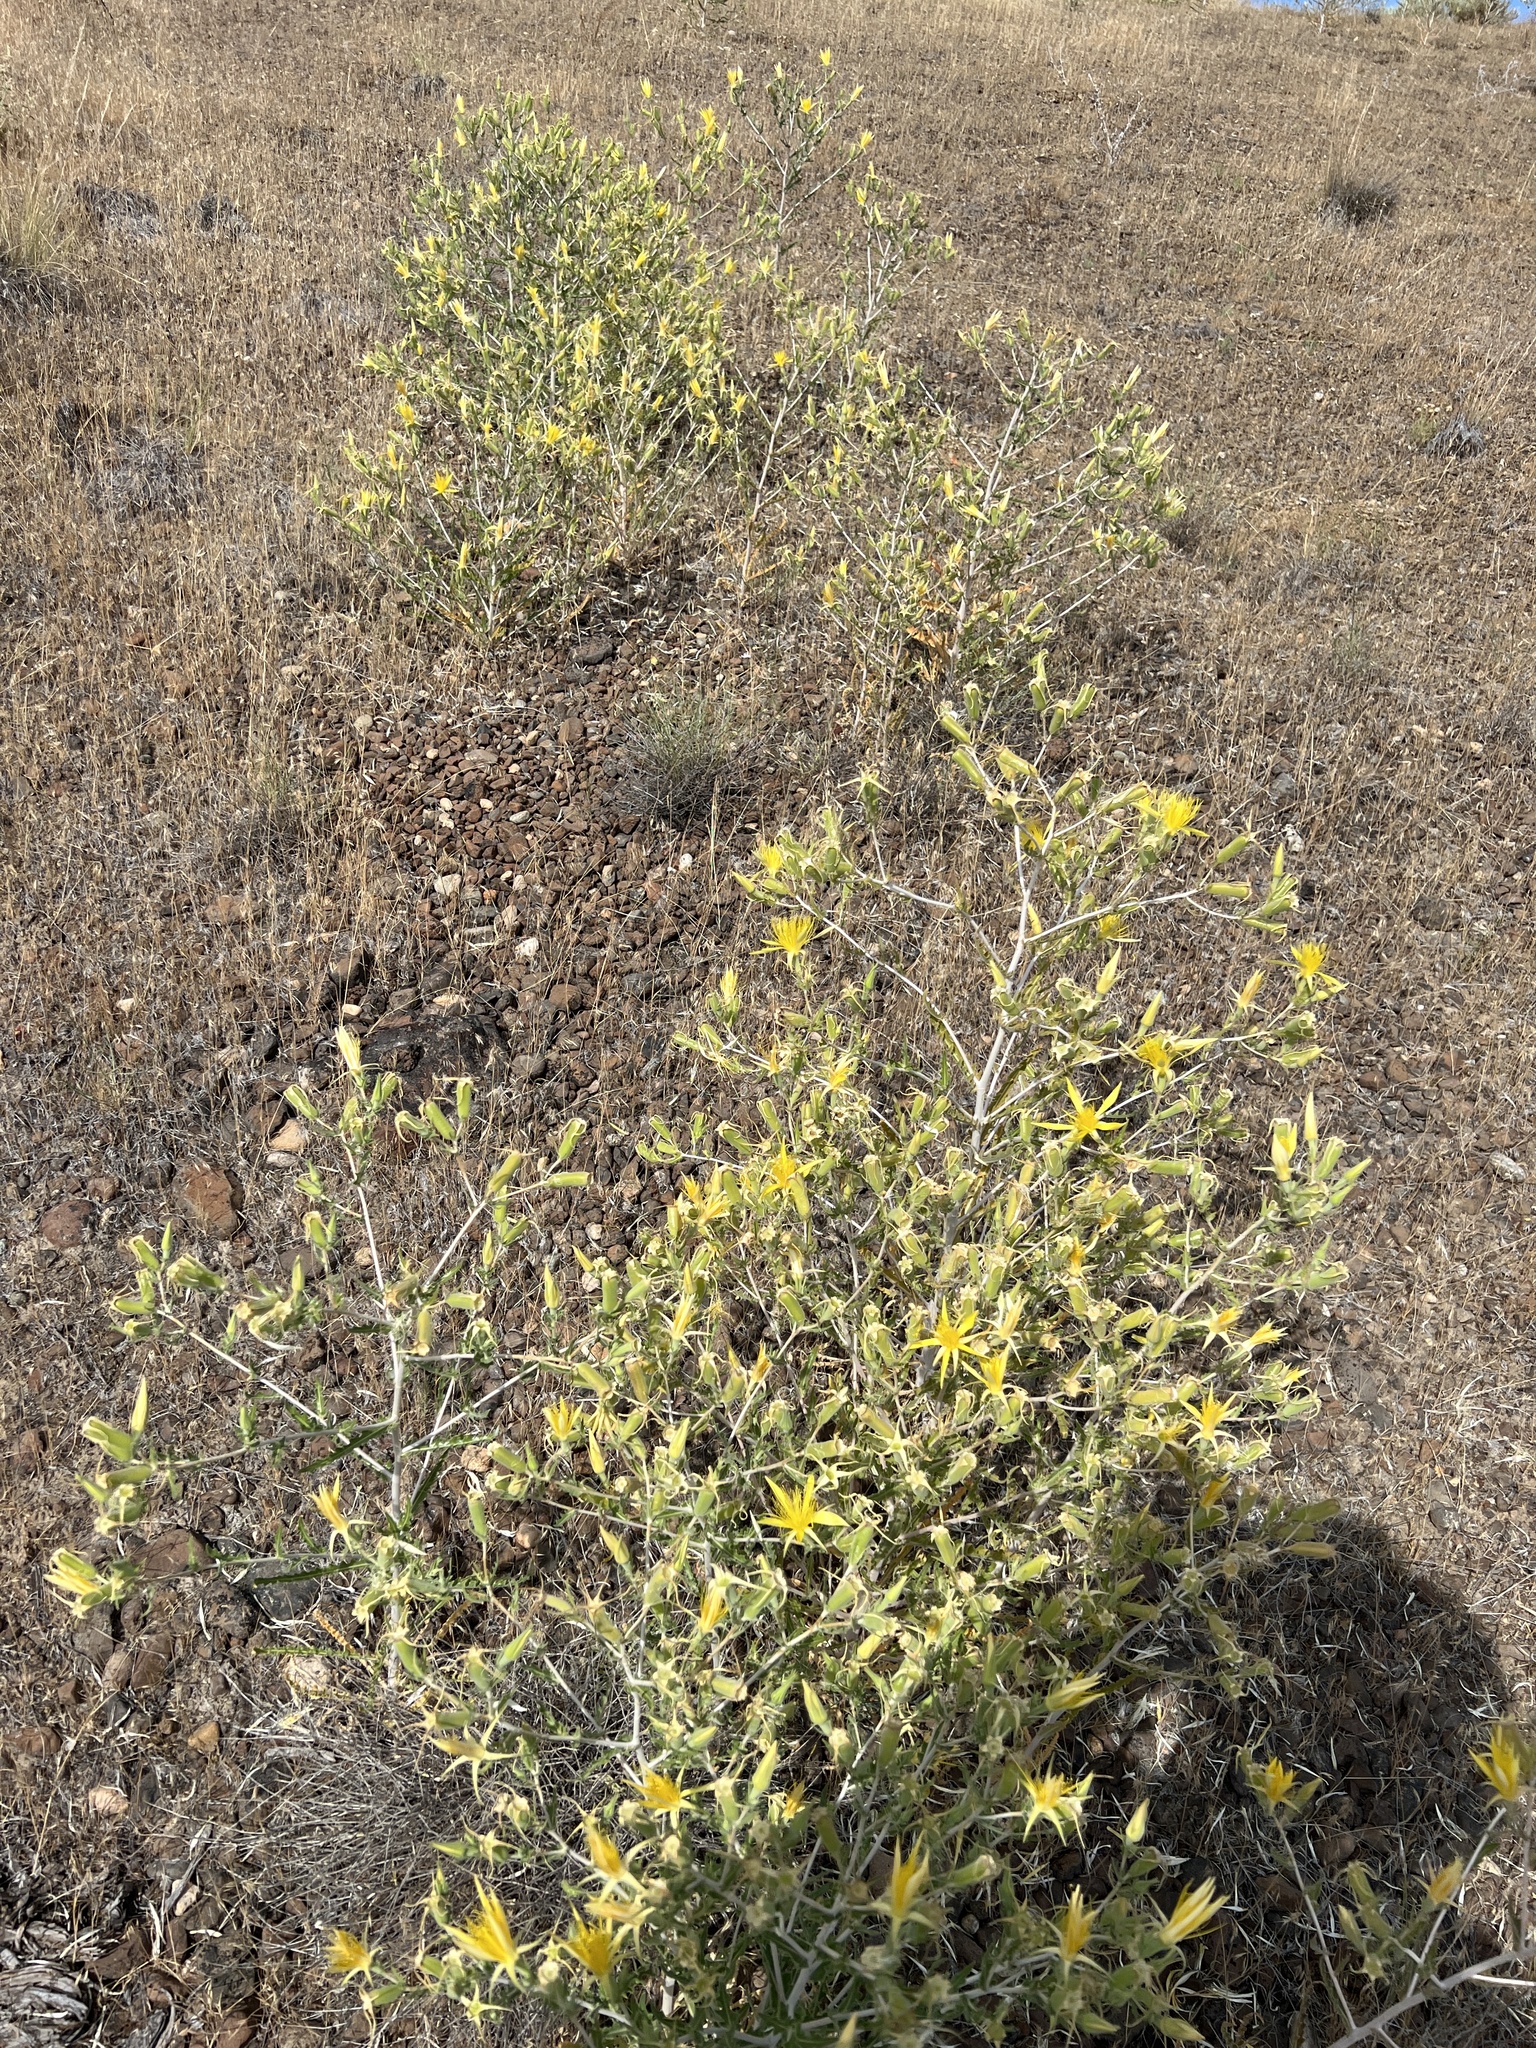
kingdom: Plantae
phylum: Tracheophyta
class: Magnoliopsida
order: Cornales
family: Loasaceae
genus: Mentzelia
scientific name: Mentzelia laevicaulis
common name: Smooth-stem blazingstar
